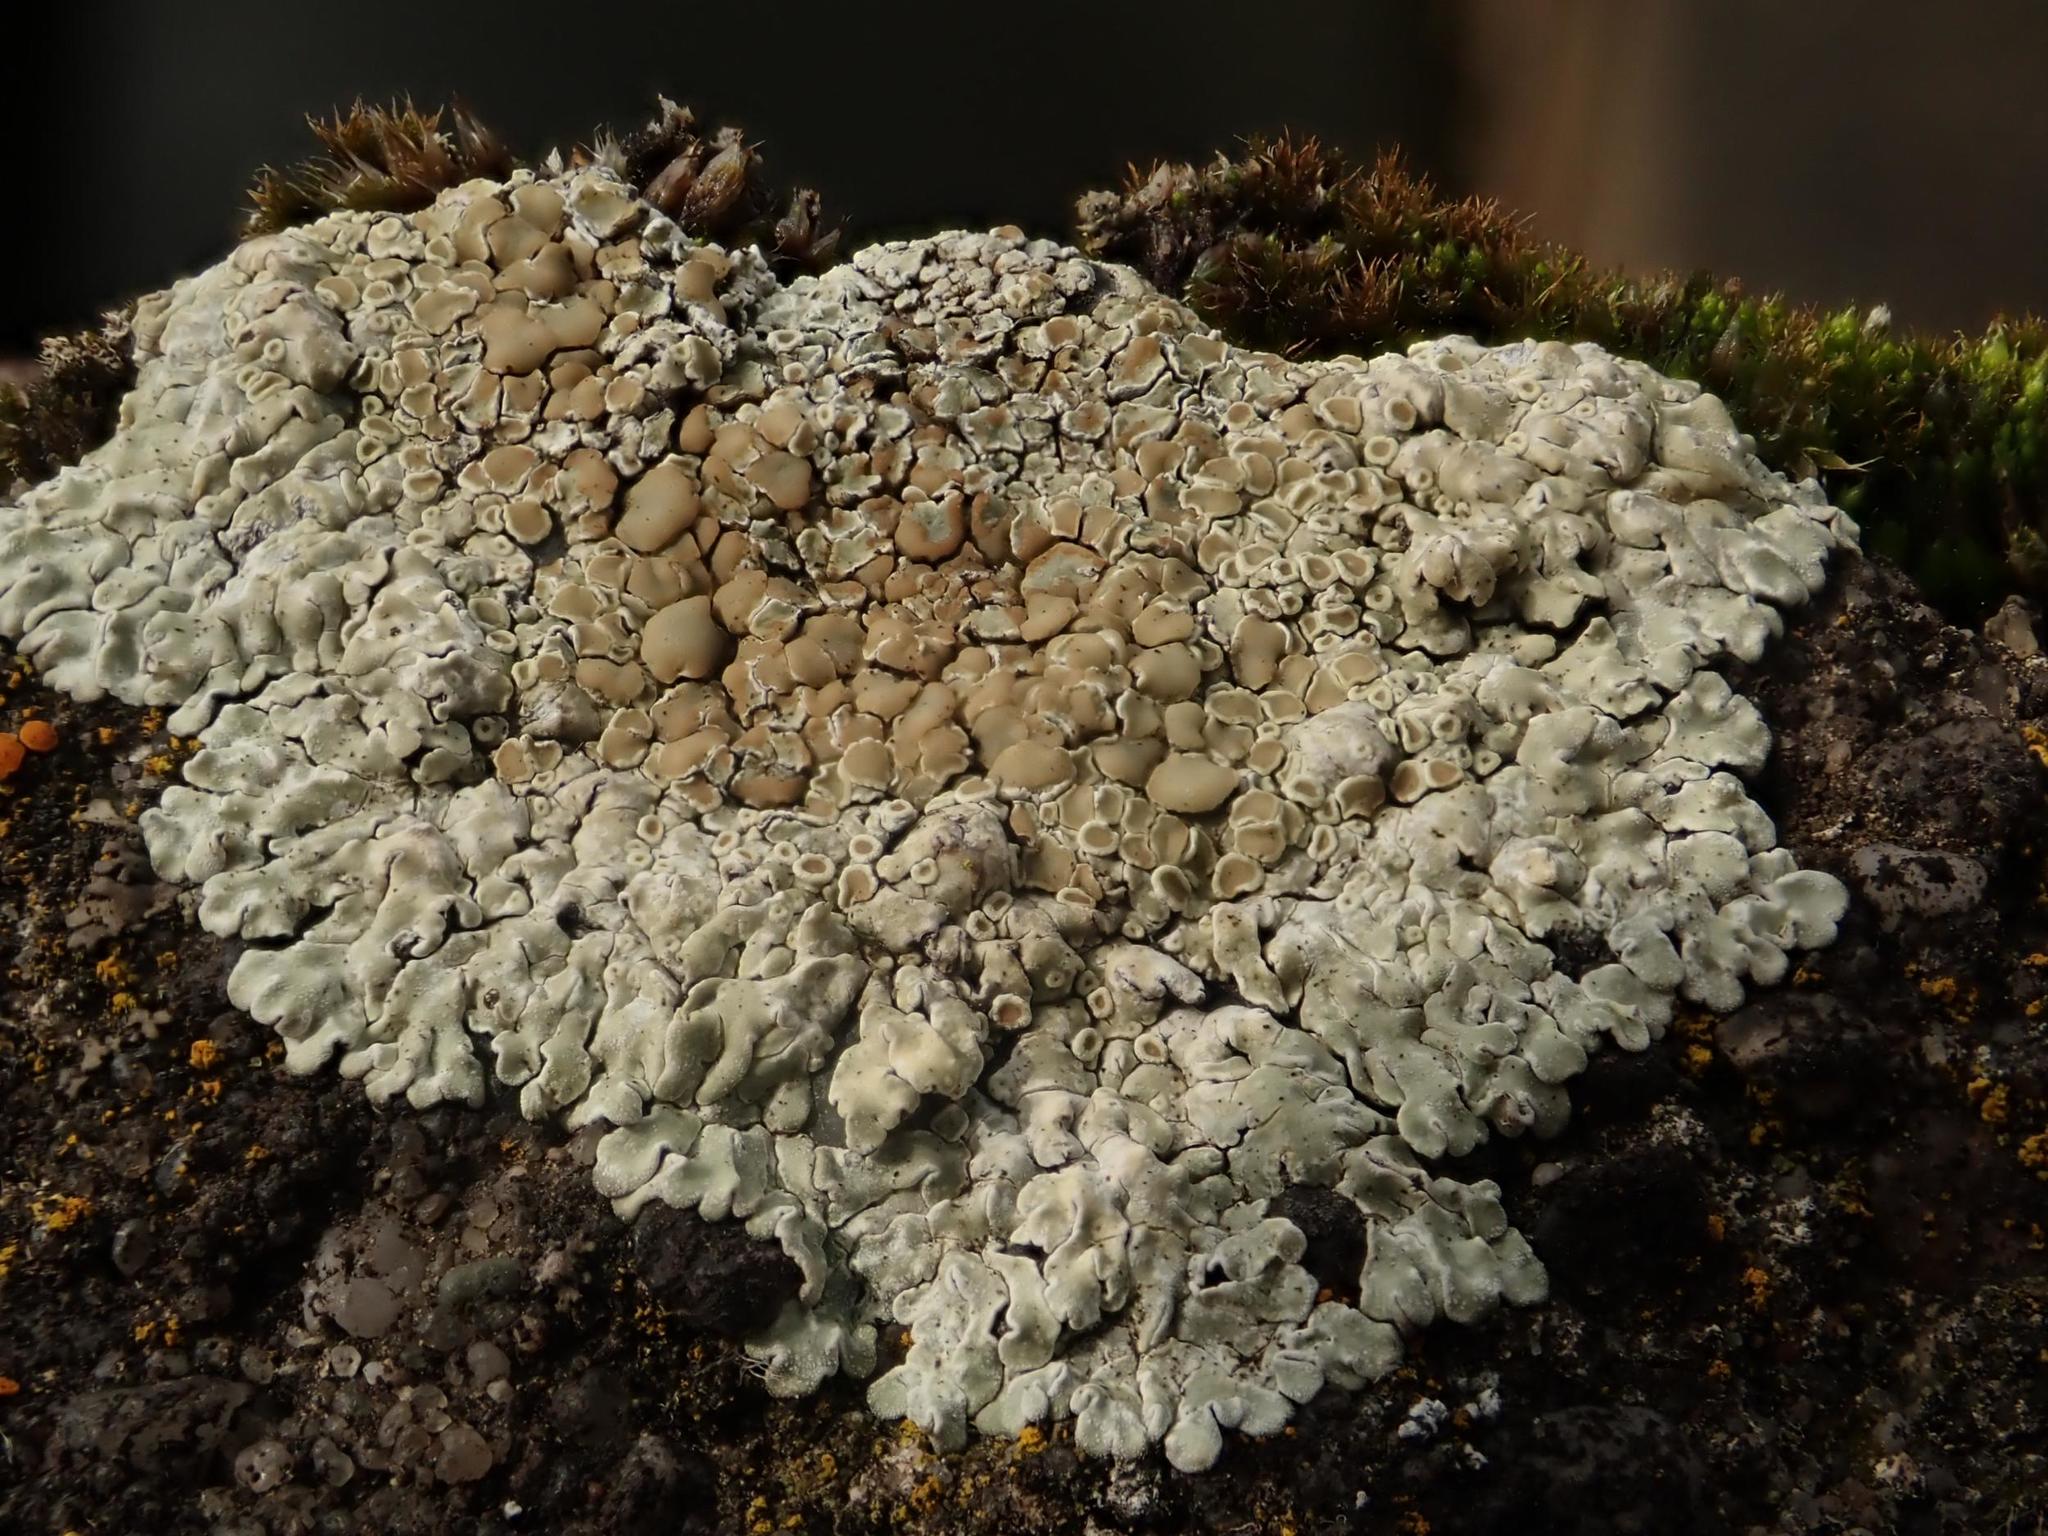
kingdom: Fungi
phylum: Ascomycota
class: Lecanoromycetes
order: Lecanorales
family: Lecanoraceae
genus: Protoparmeliopsis
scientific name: Protoparmeliopsis muralis
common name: Stonewall rim lichen
